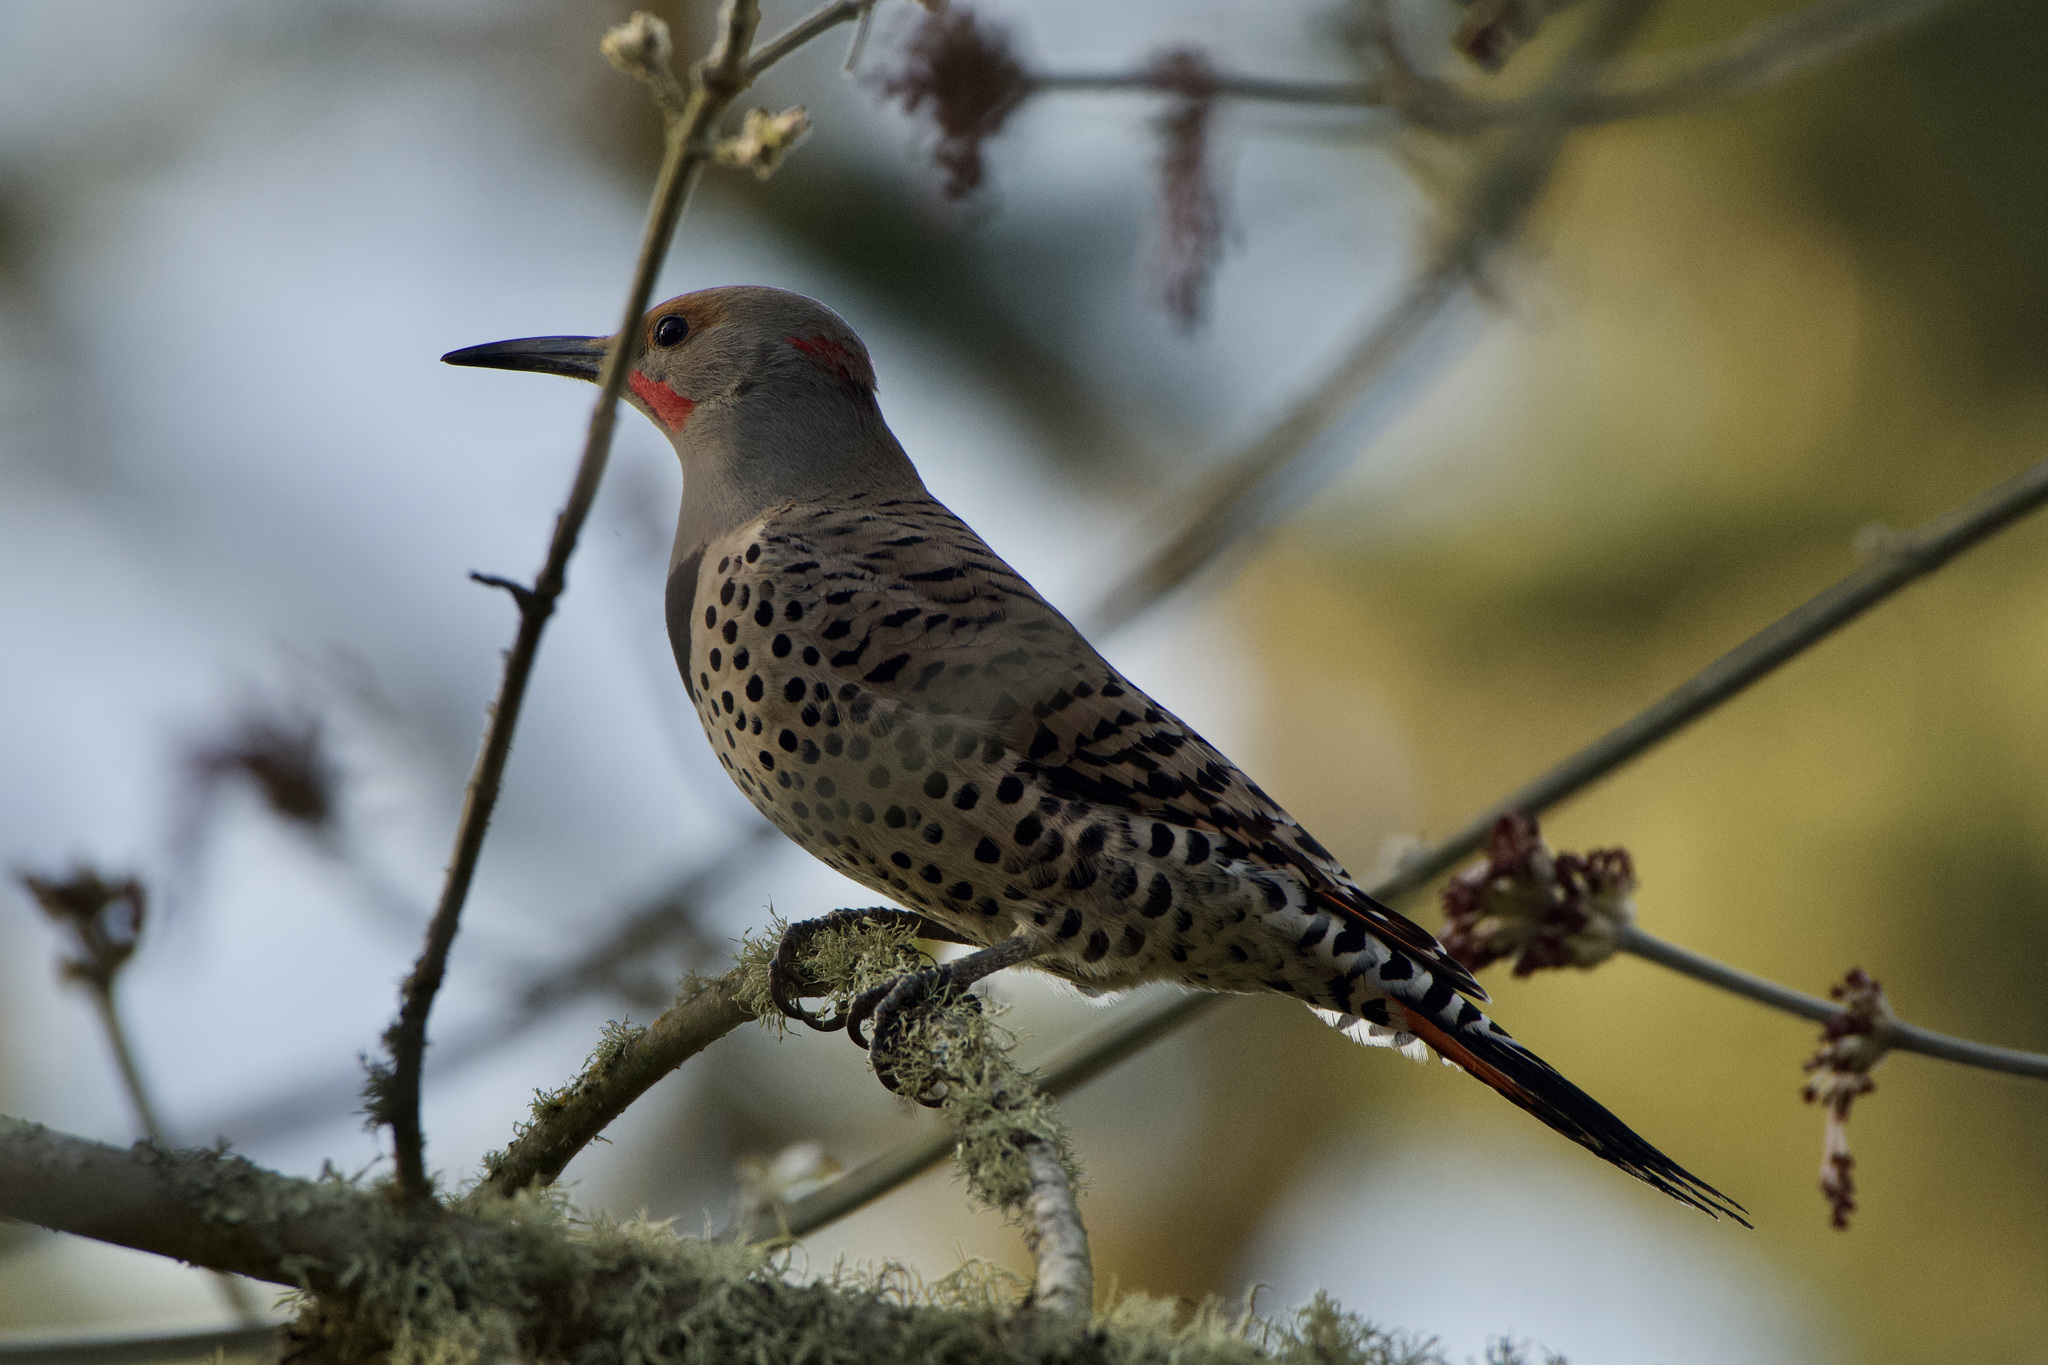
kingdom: Animalia
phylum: Chordata
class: Aves
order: Piciformes
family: Picidae
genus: Colaptes
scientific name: Colaptes
